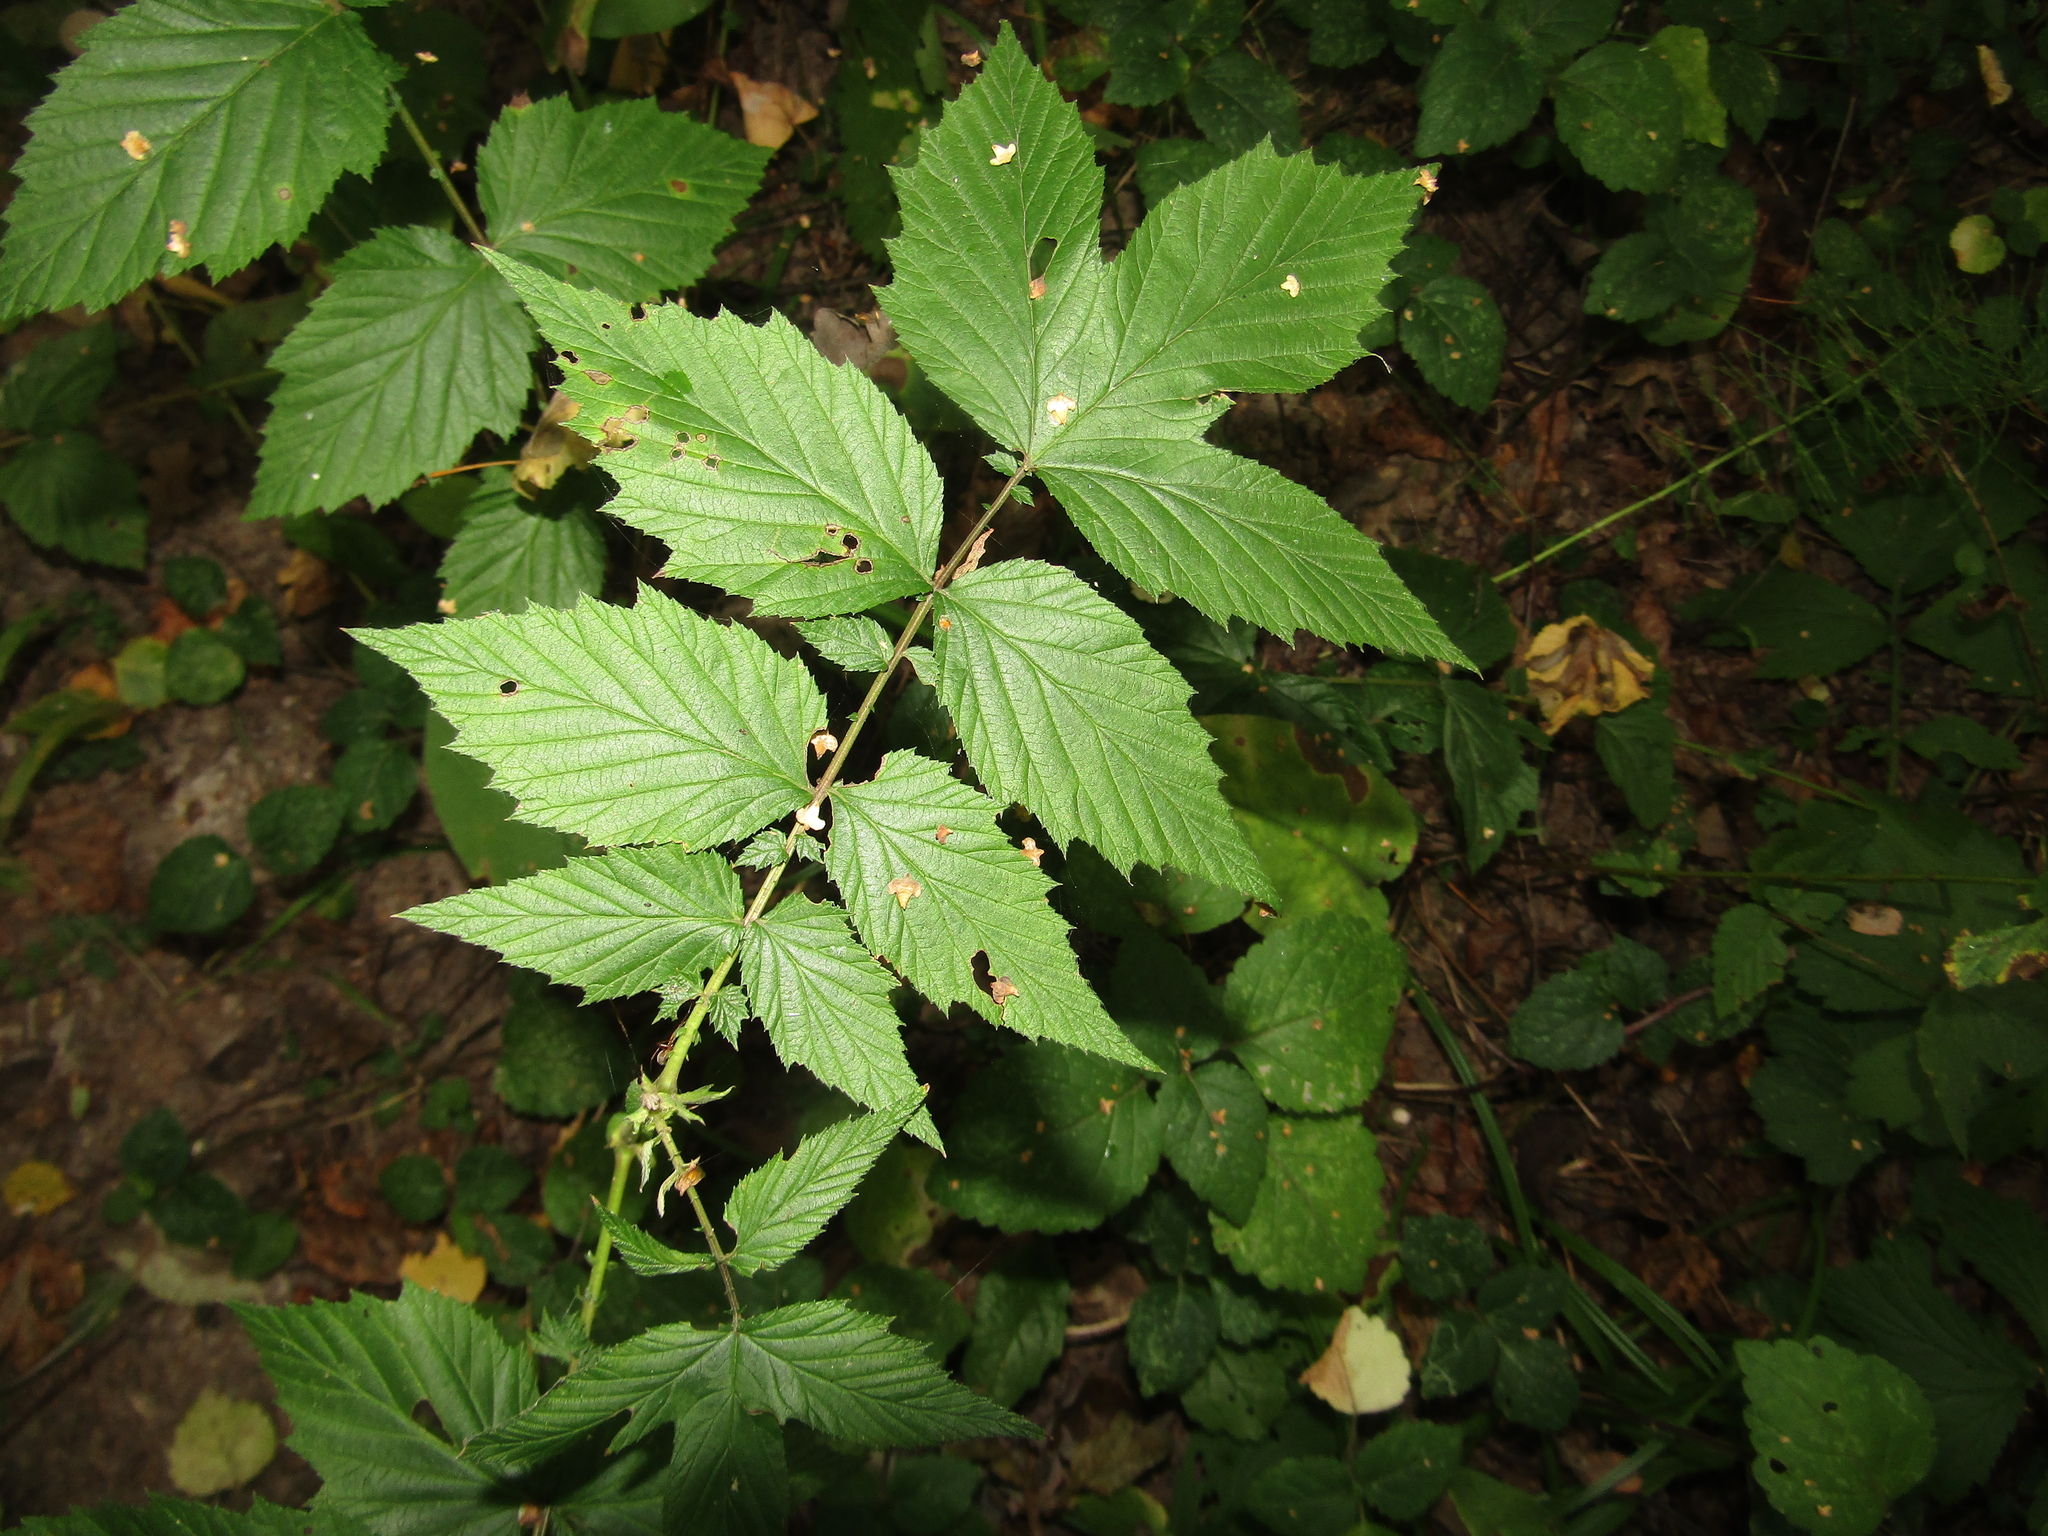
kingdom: Plantae
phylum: Tracheophyta
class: Magnoliopsida
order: Rosales
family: Rosaceae
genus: Filipendula
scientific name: Filipendula ulmaria
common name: Meadowsweet
